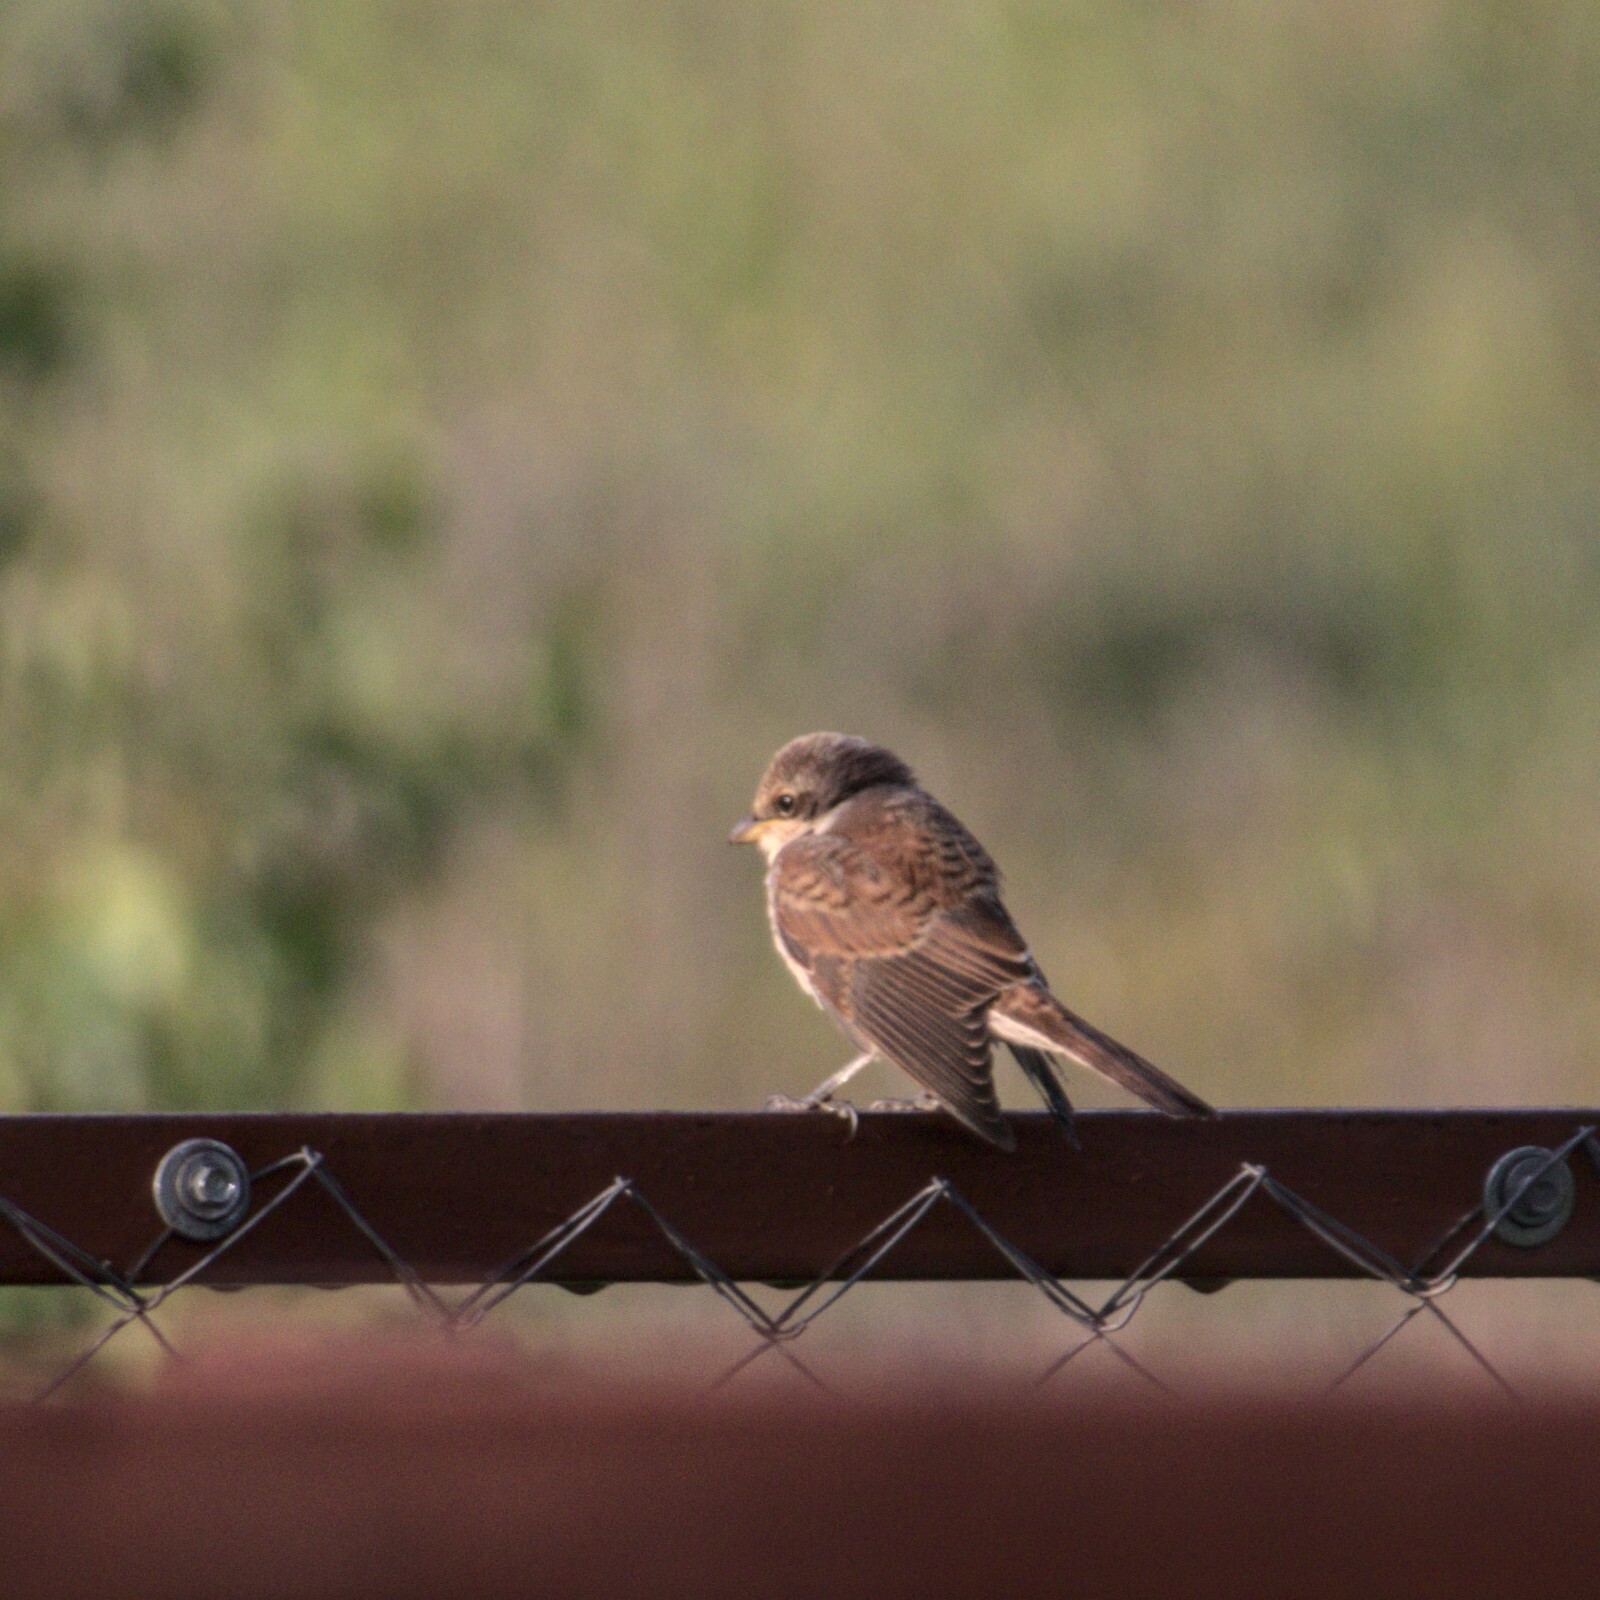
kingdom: Animalia
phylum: Chordata
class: Aves
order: Passeriformes
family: Laniidae
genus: Lanius
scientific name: Lanius collurio
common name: Red-backed shrike
